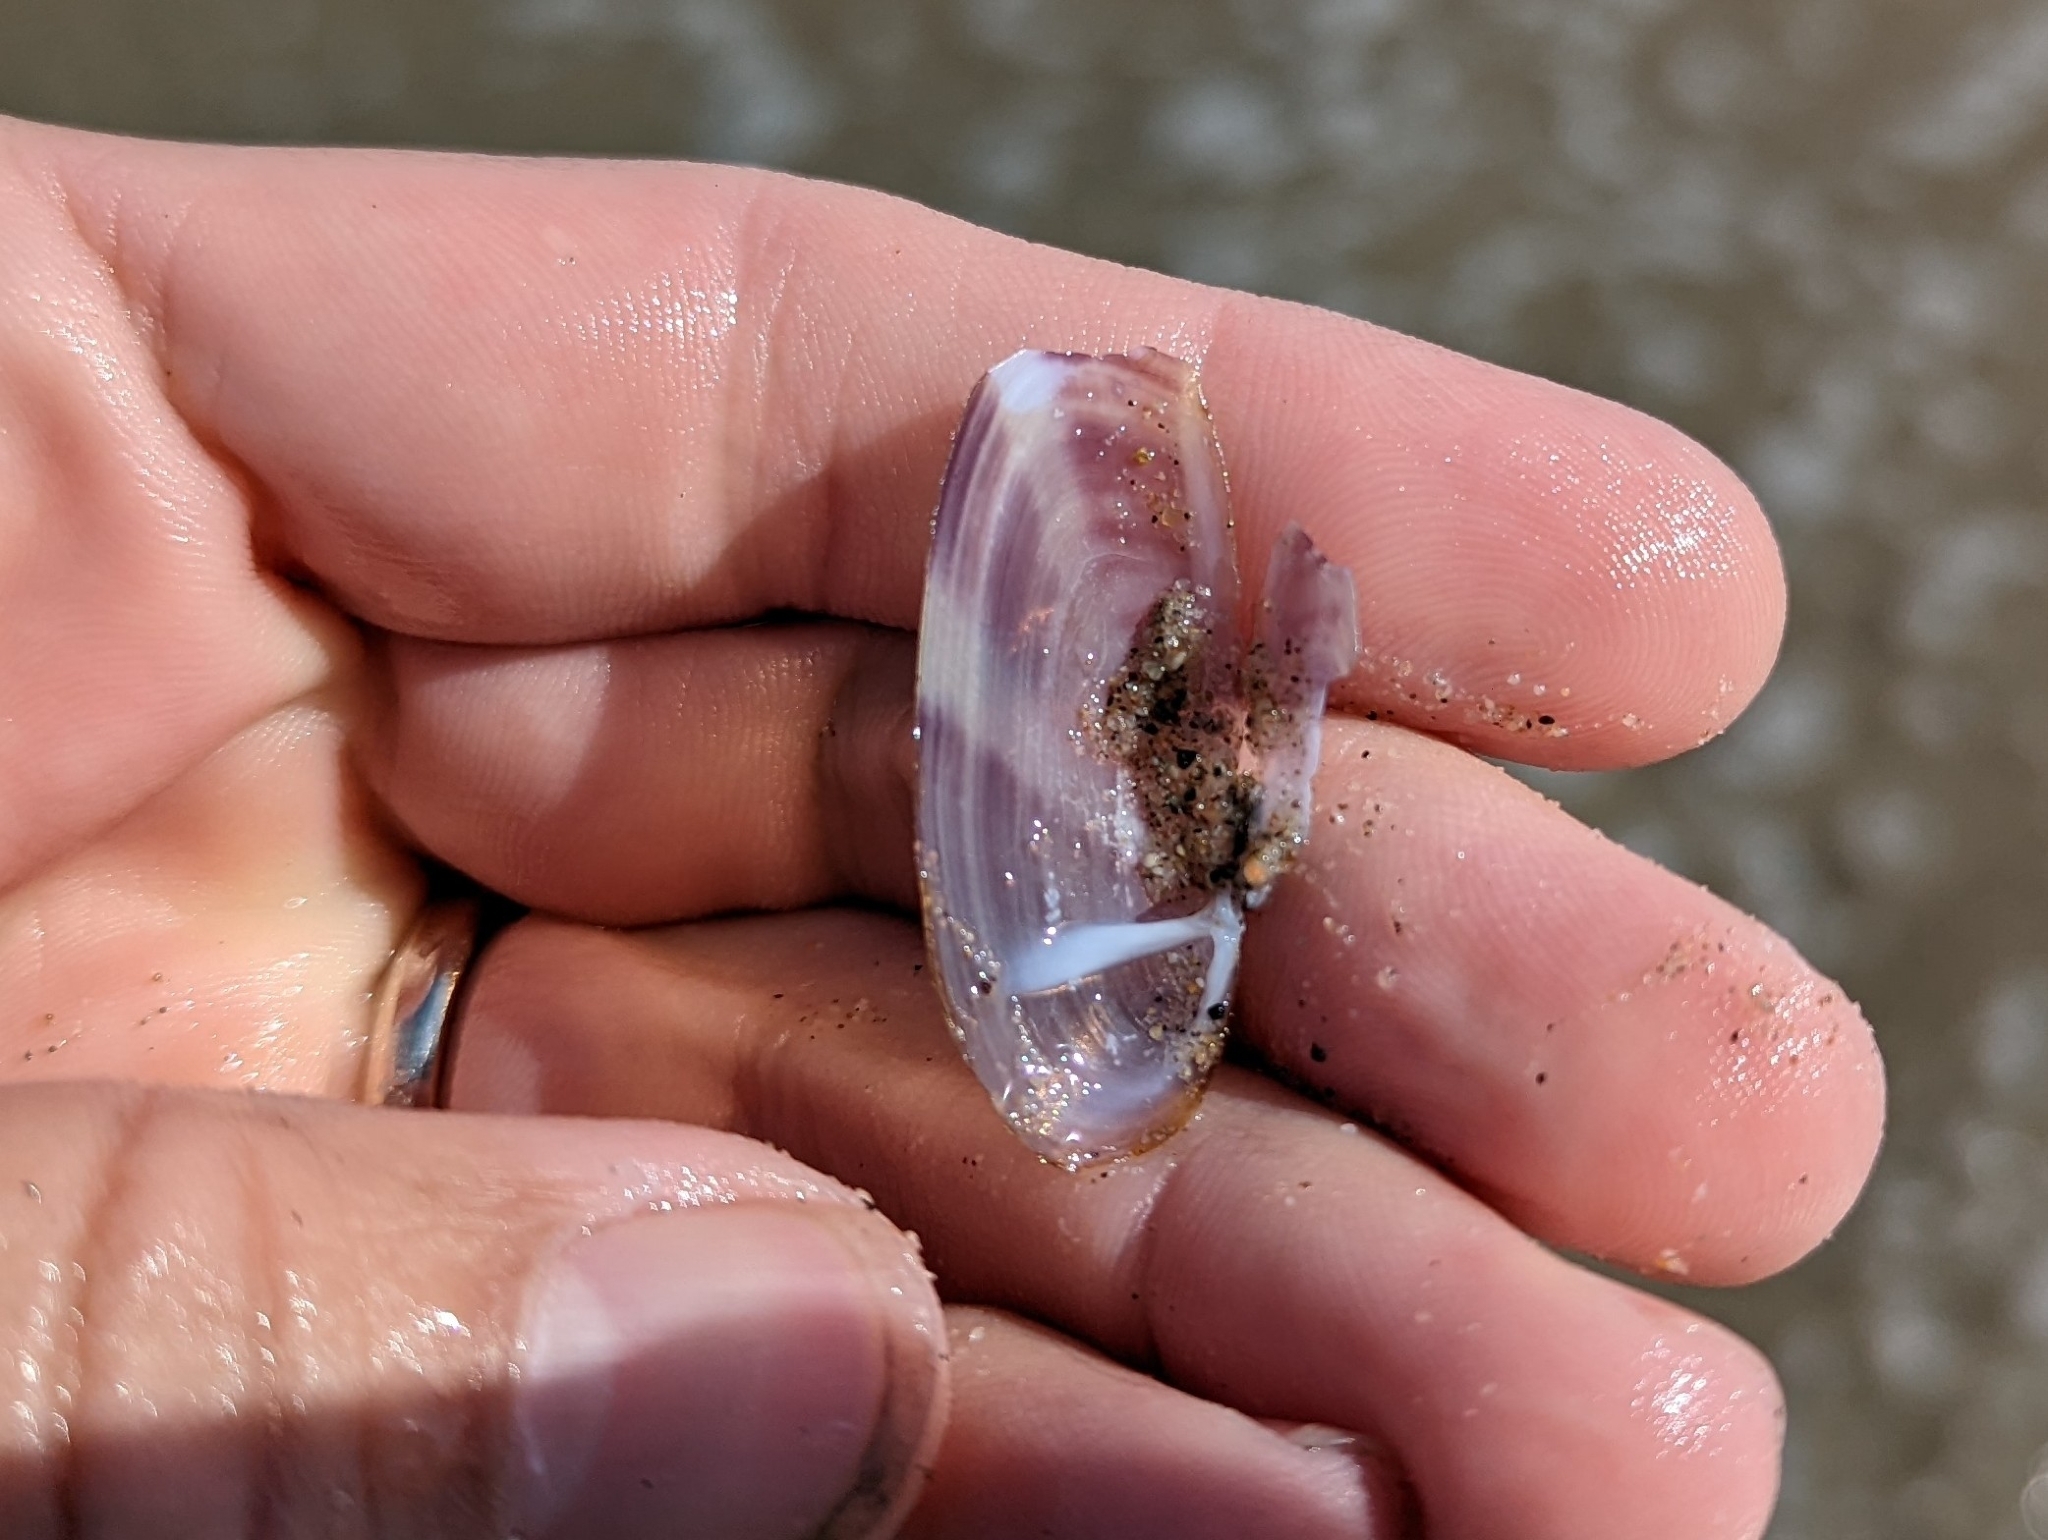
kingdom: Animalia
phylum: Mollusca
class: Bivalvia
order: Adapedonta
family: Pharidae
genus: Siliqua
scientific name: Siliqua lucida
